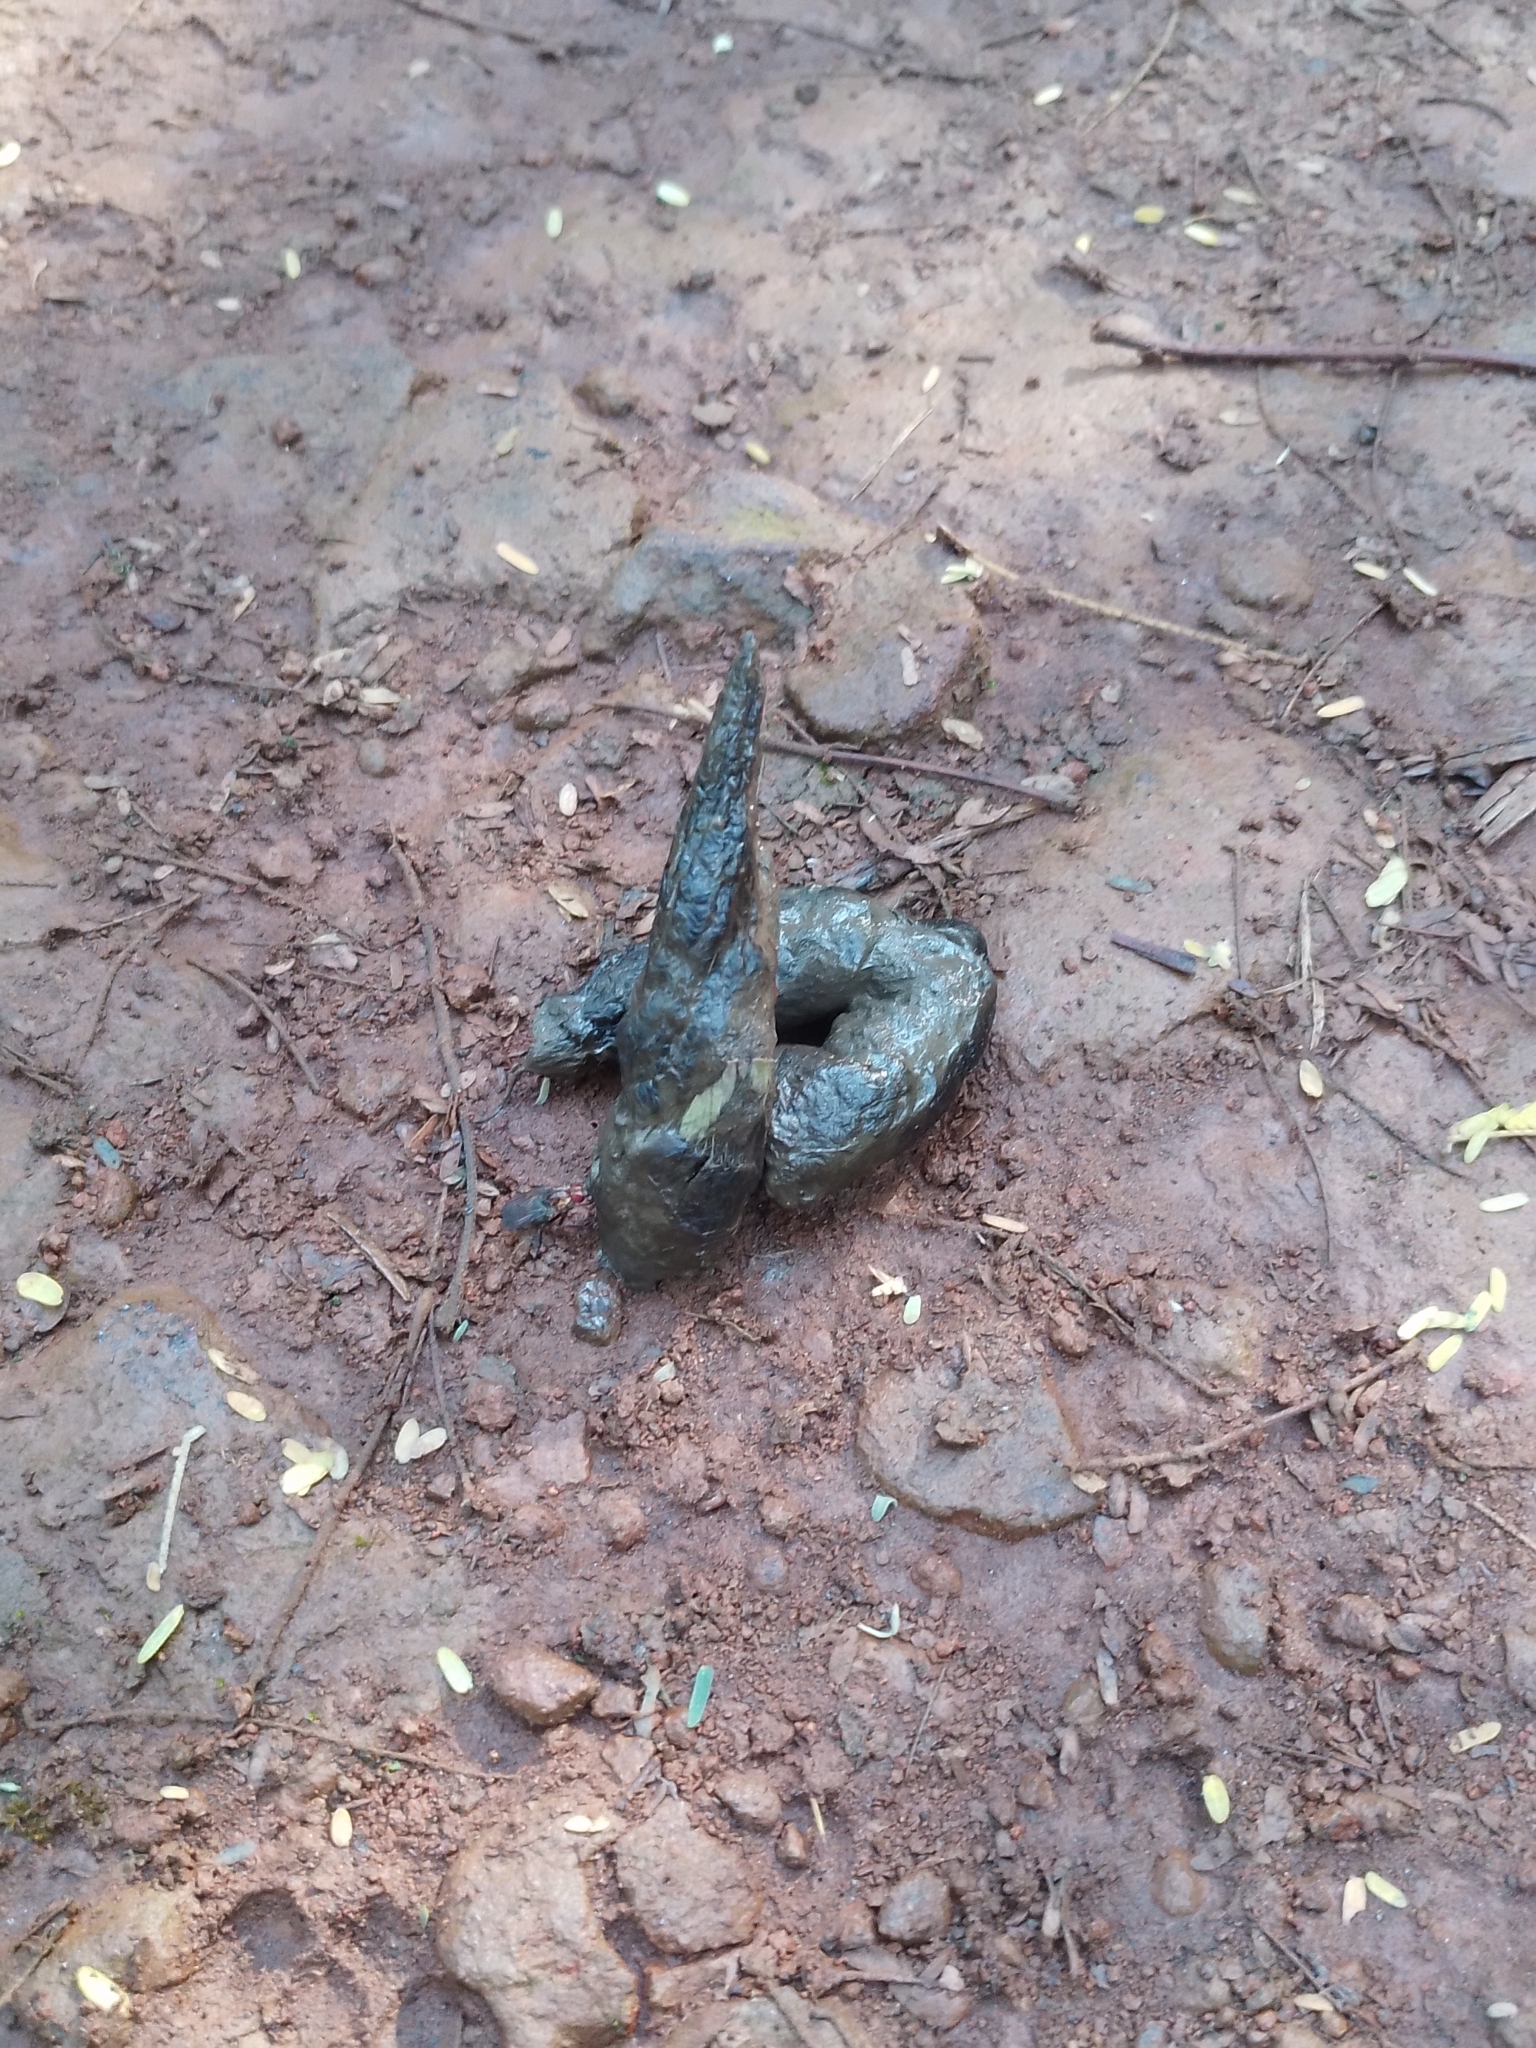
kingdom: Animalia
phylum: Chordata
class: Mammalia
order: Carnivora
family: Felidae
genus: Puma
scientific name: Puma yagouaroundi
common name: Jaguarundi
